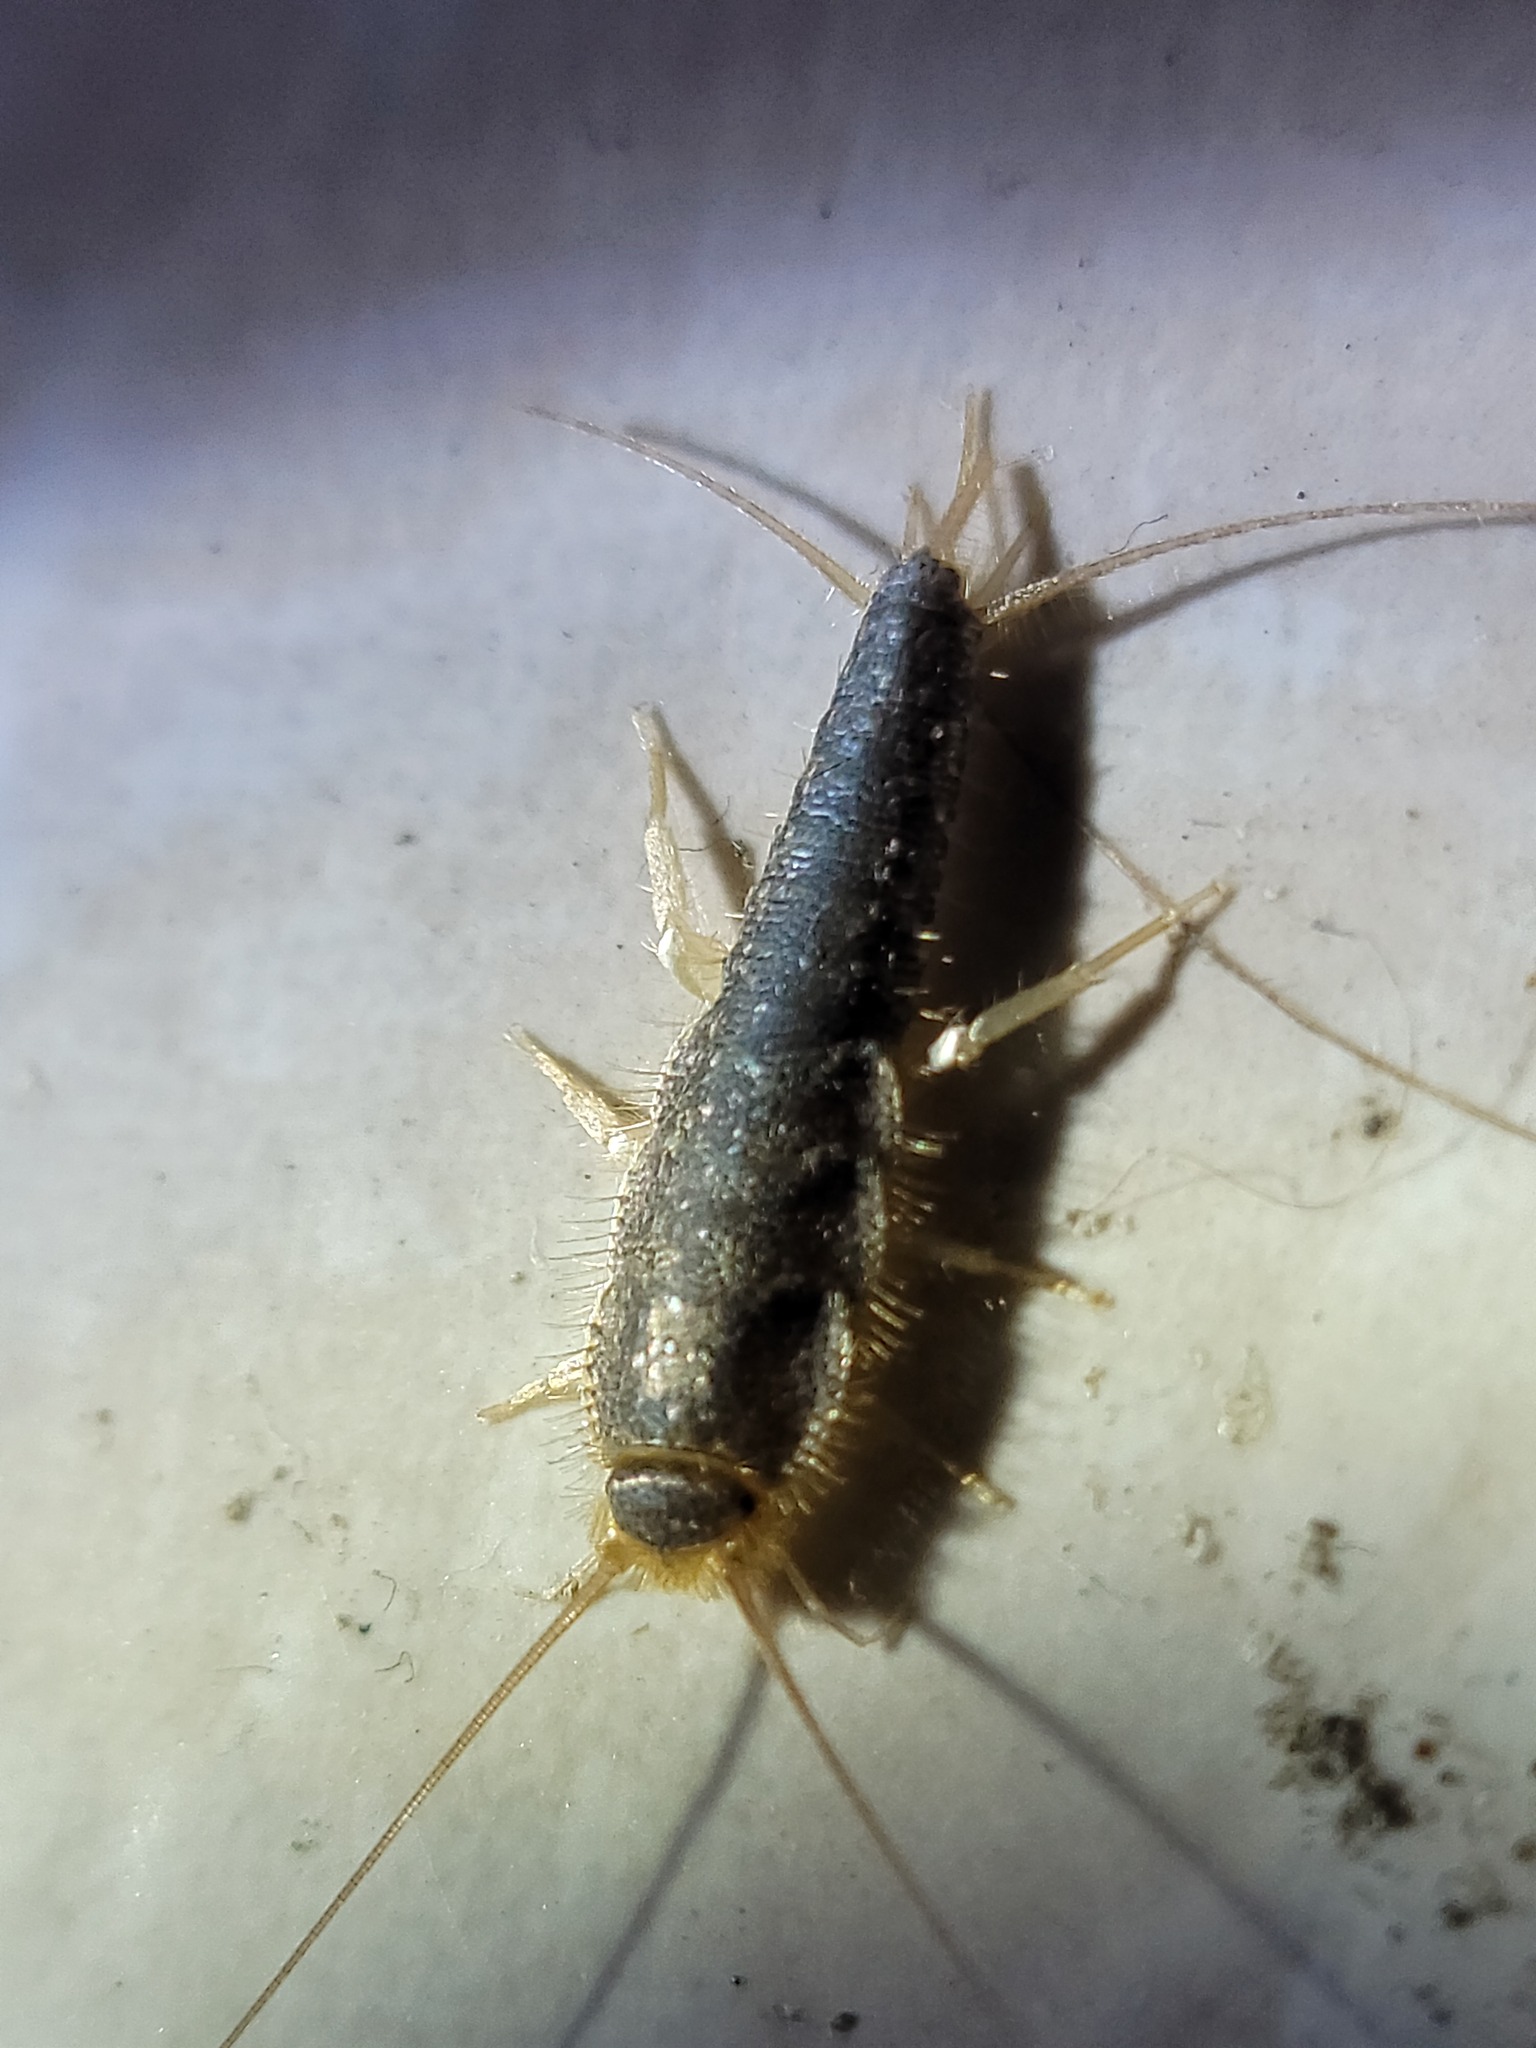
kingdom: Animalia
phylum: Arthropoda
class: Insecta
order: Zygentoma
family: Lepismatidae
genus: Ctenolepisma
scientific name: Ctenolepisma longicaudatum
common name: Silverfish
